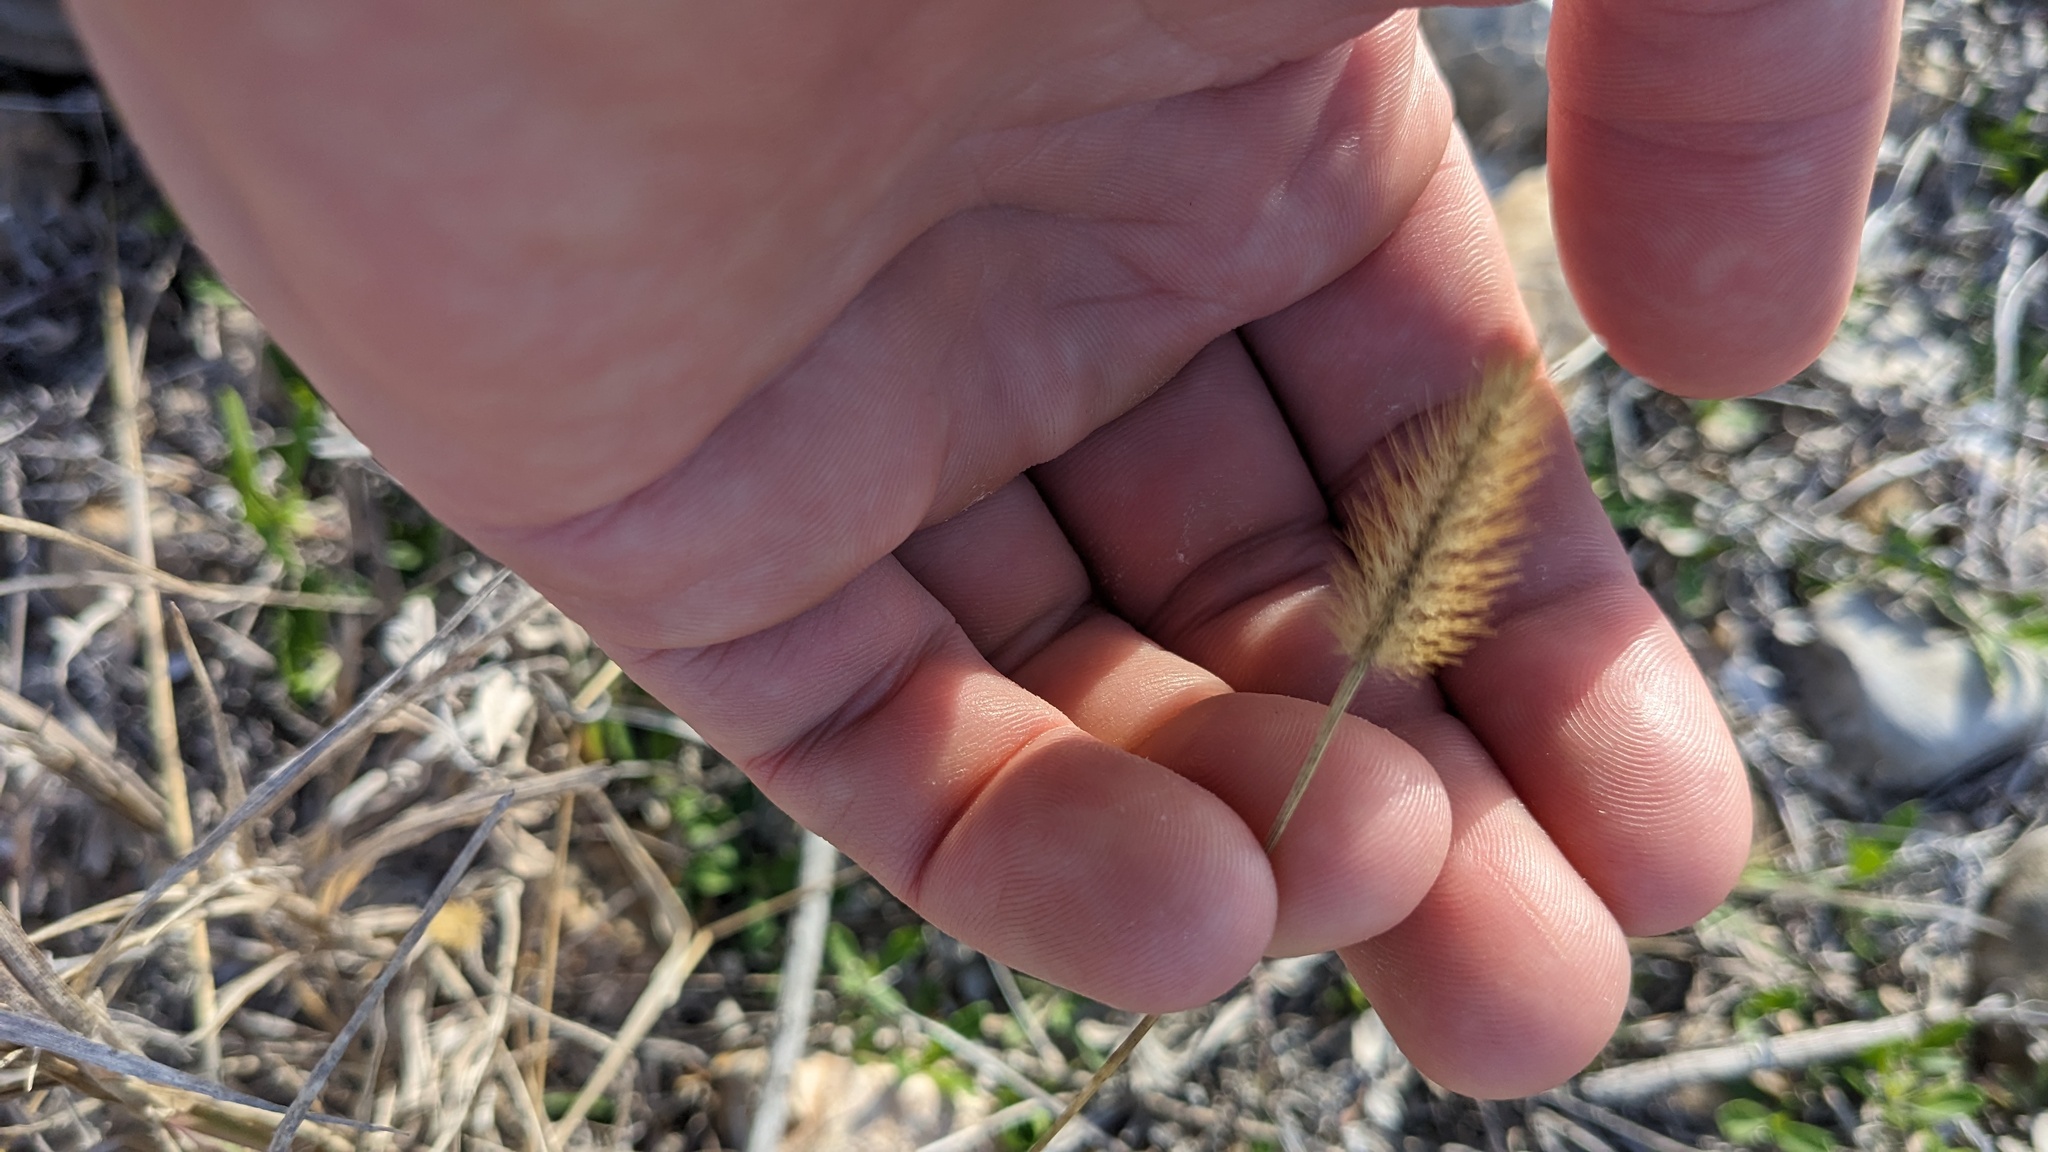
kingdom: Plantae
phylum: Tracheophyta
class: Liliopsida
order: Poales
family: Poaceae
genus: Setaria
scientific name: Setaria parviflora
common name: Knotroot bristle-grass
